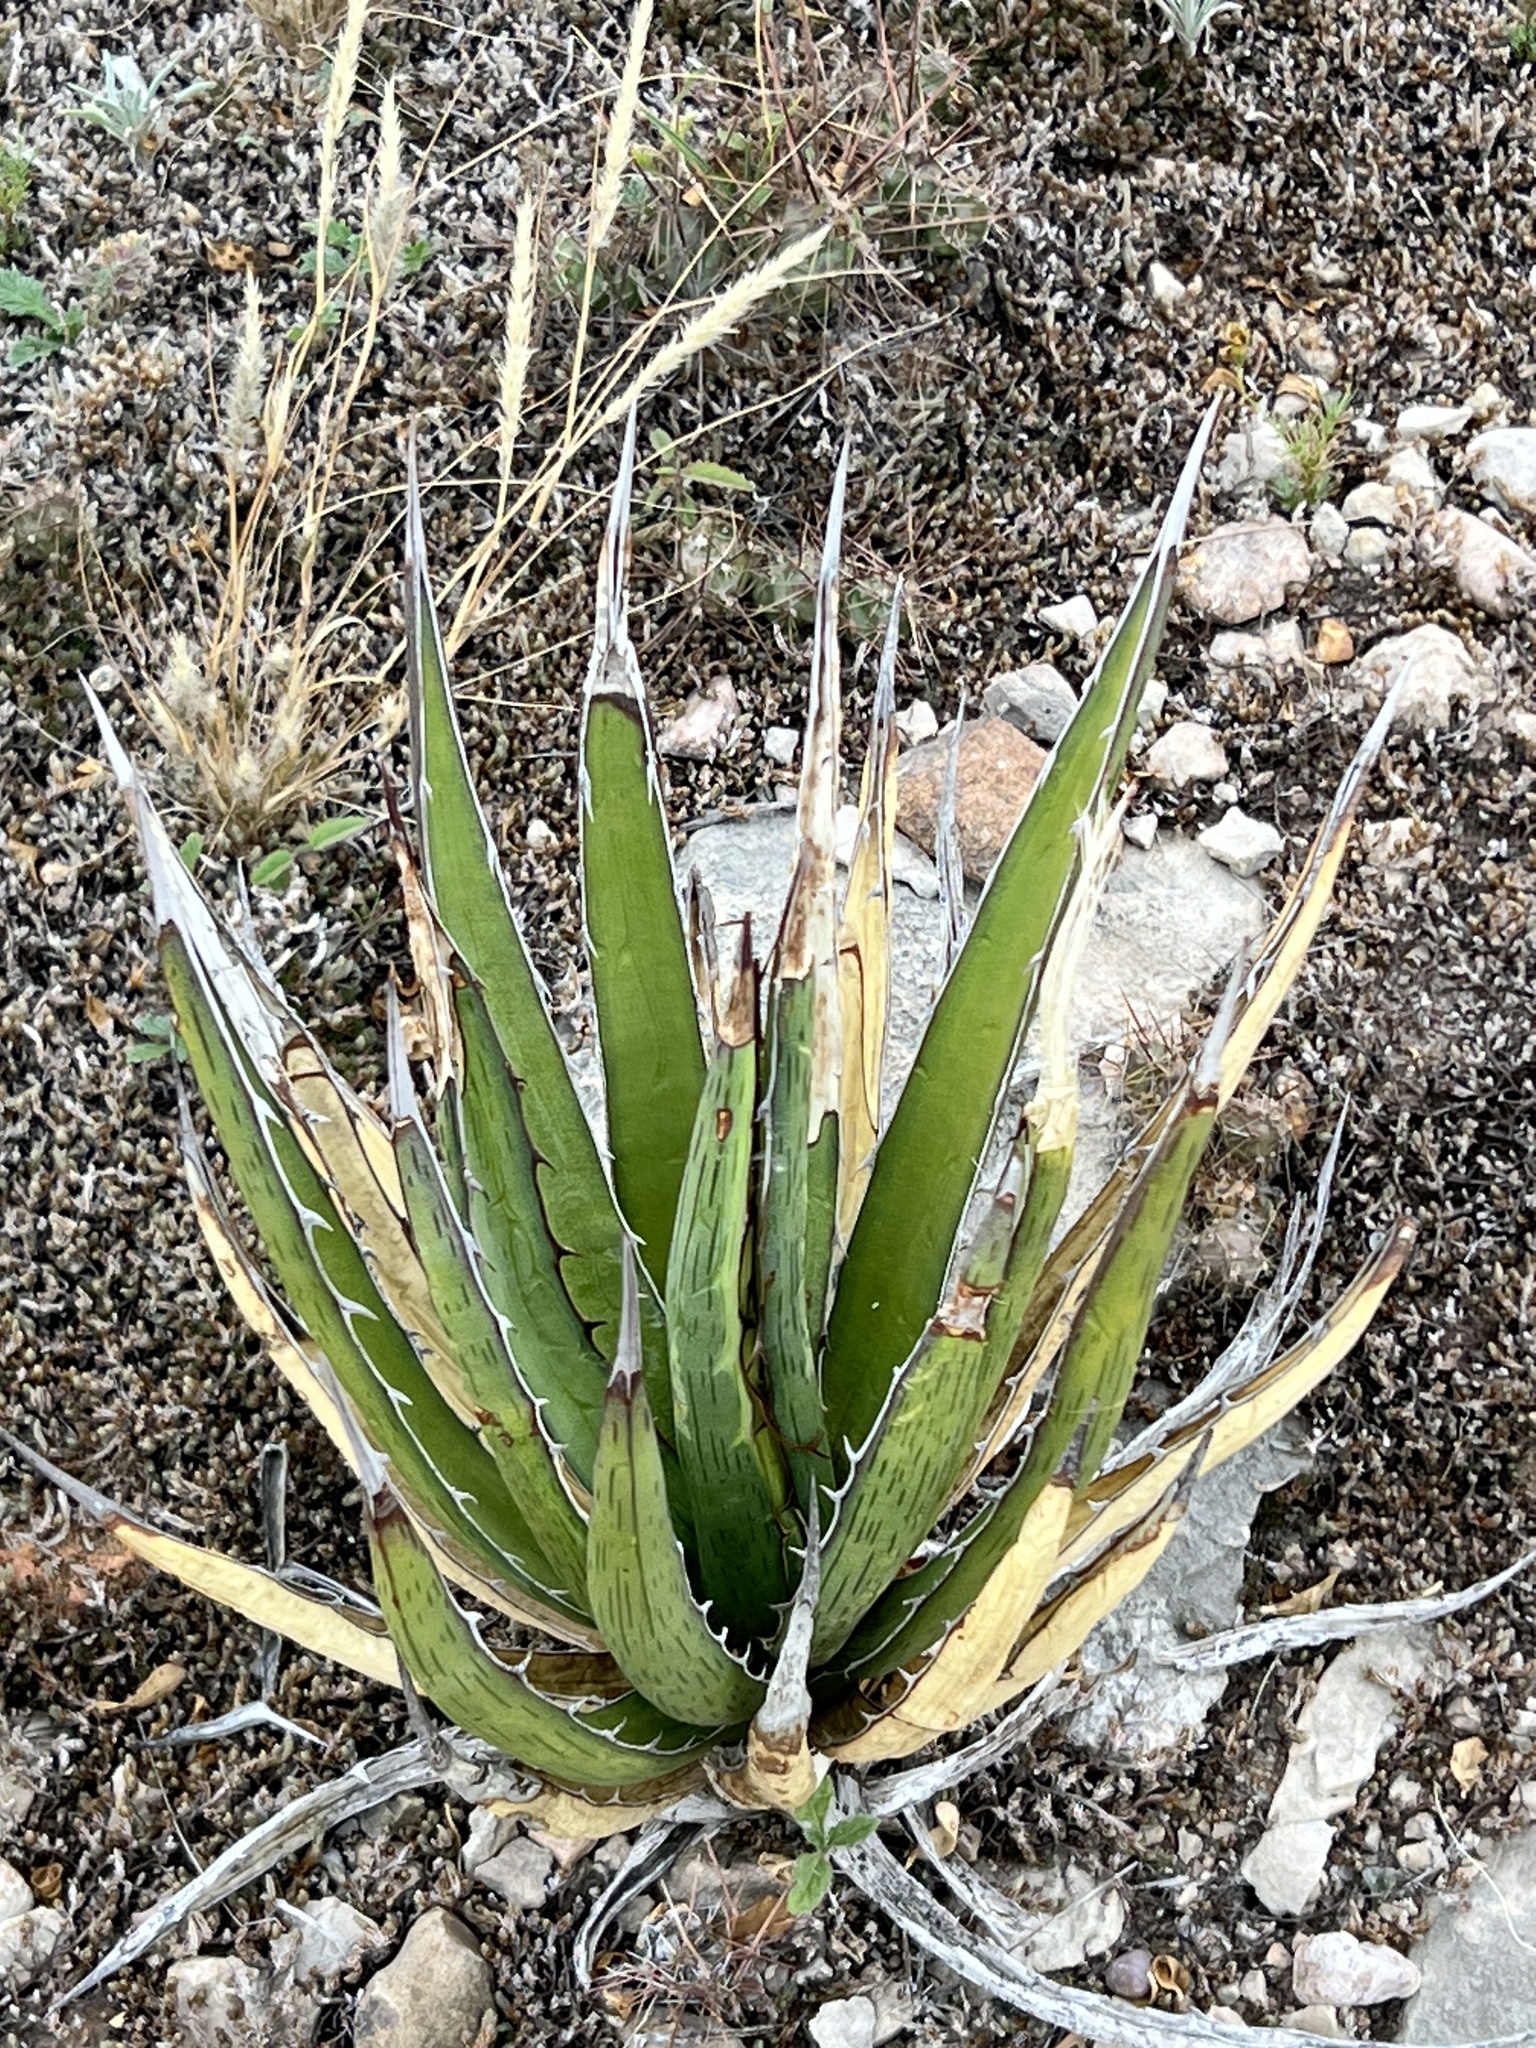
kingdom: Plantae
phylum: Tracheophyta
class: Liliopsida
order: Asparagales
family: Asparagaceae
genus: Agave
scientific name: Agave lechuguilla
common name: Lecheguilla agave
